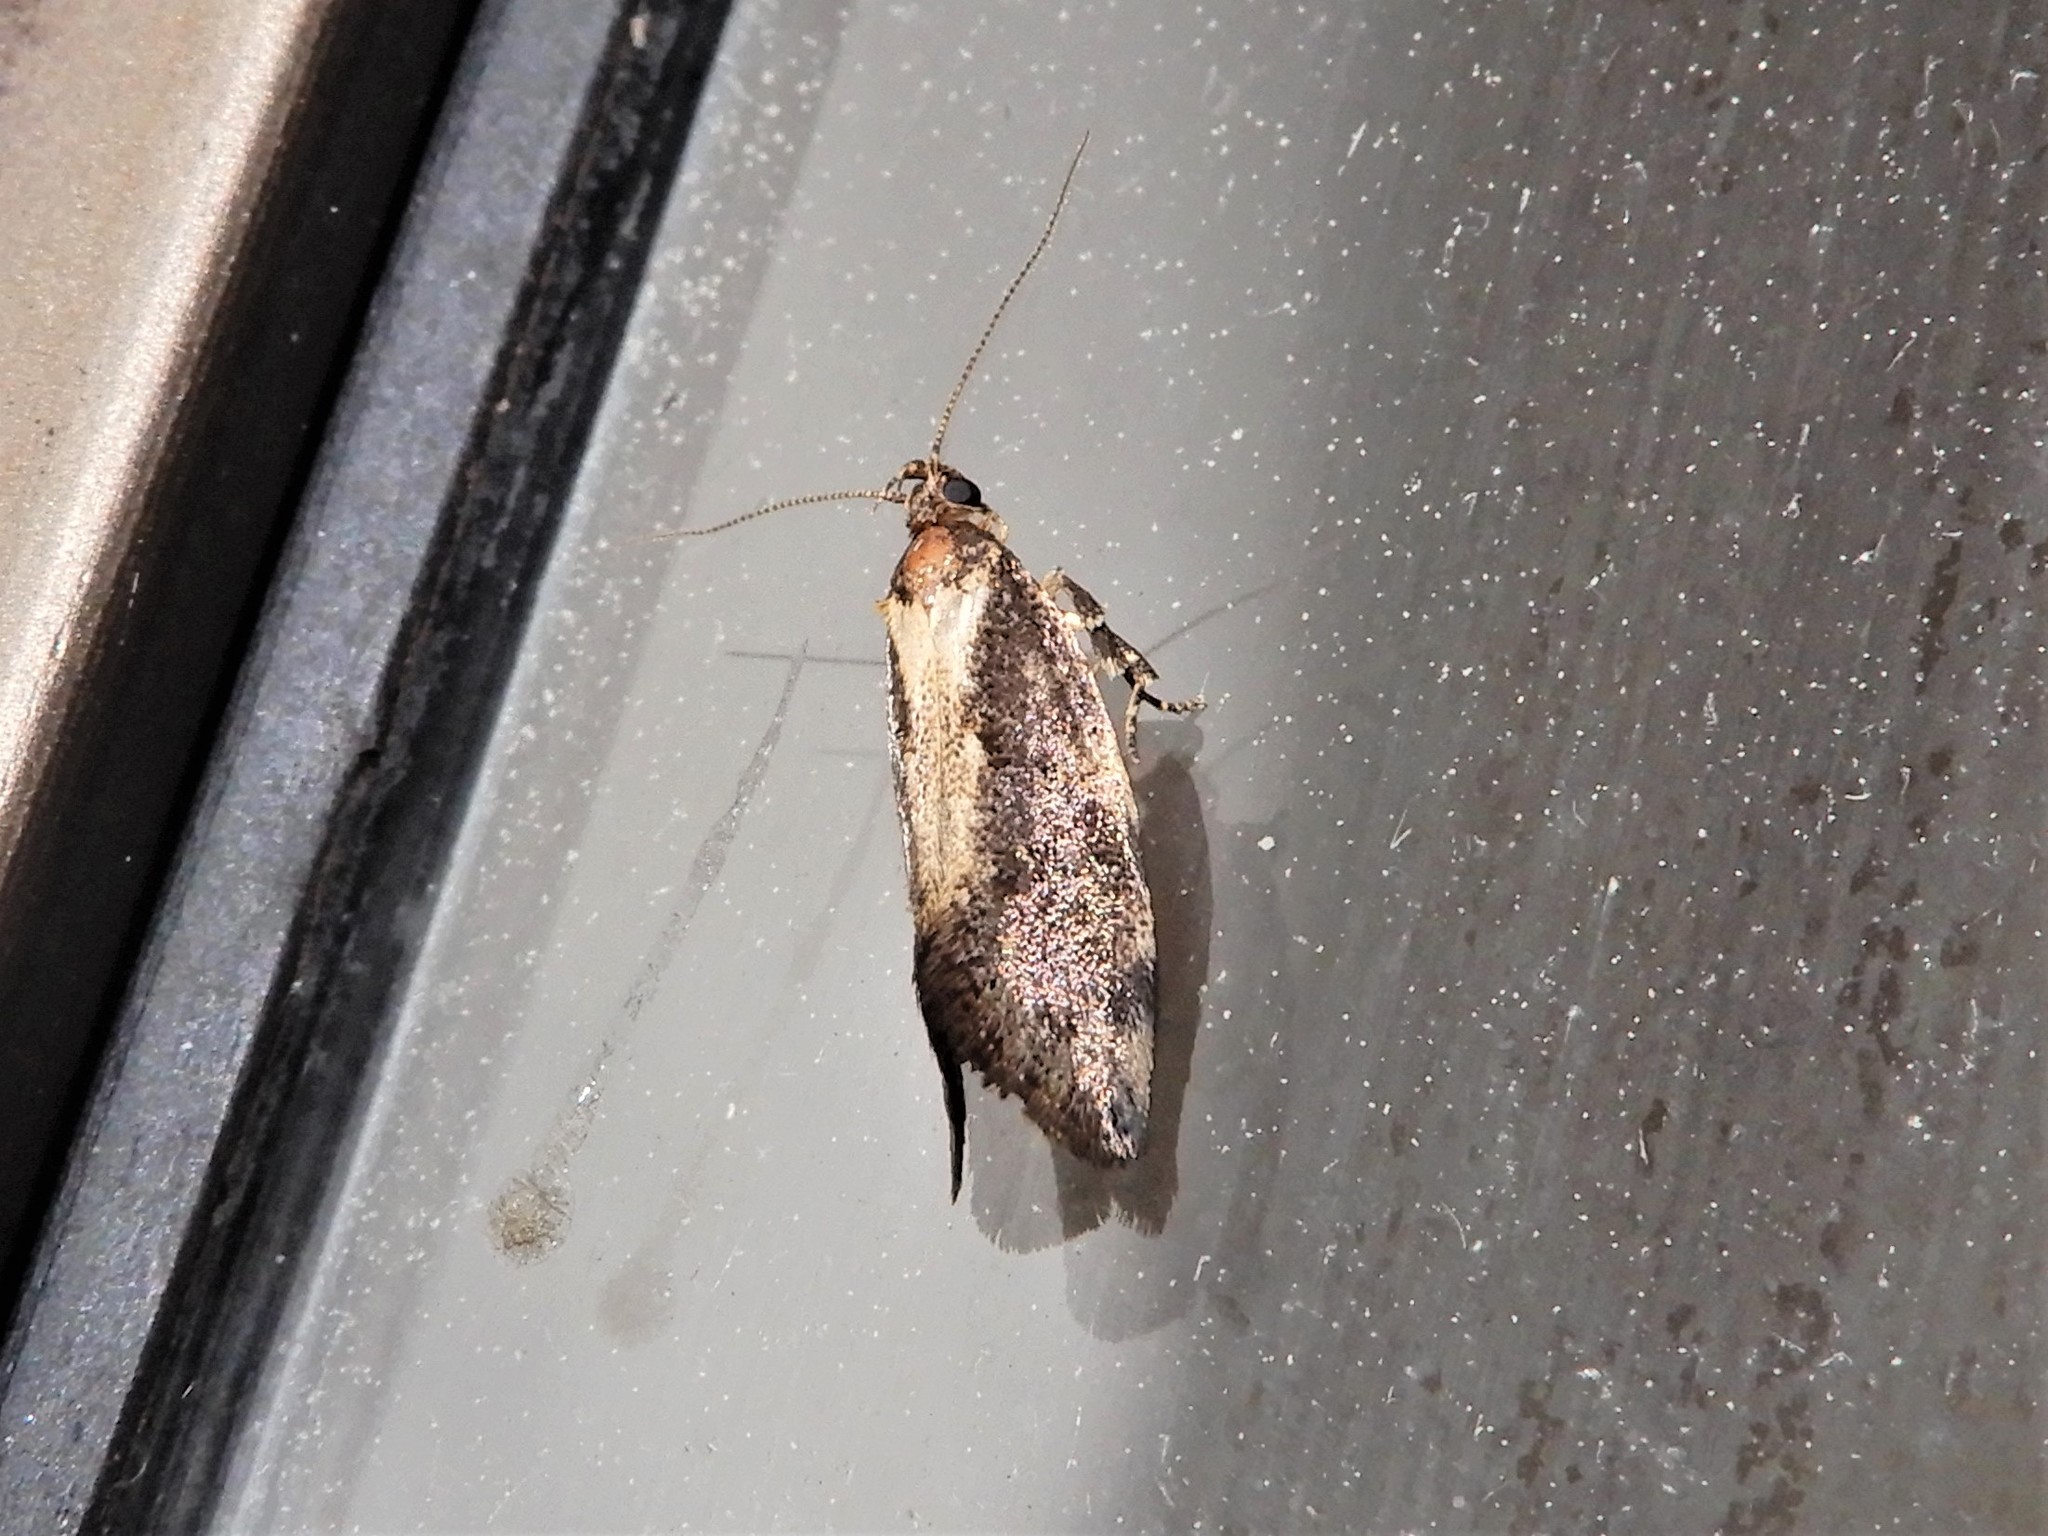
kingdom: Animalia
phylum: Arthropoda
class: Insecta
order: Lepidoptera
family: Oecophoridae
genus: Tingena
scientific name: Tingena basella
